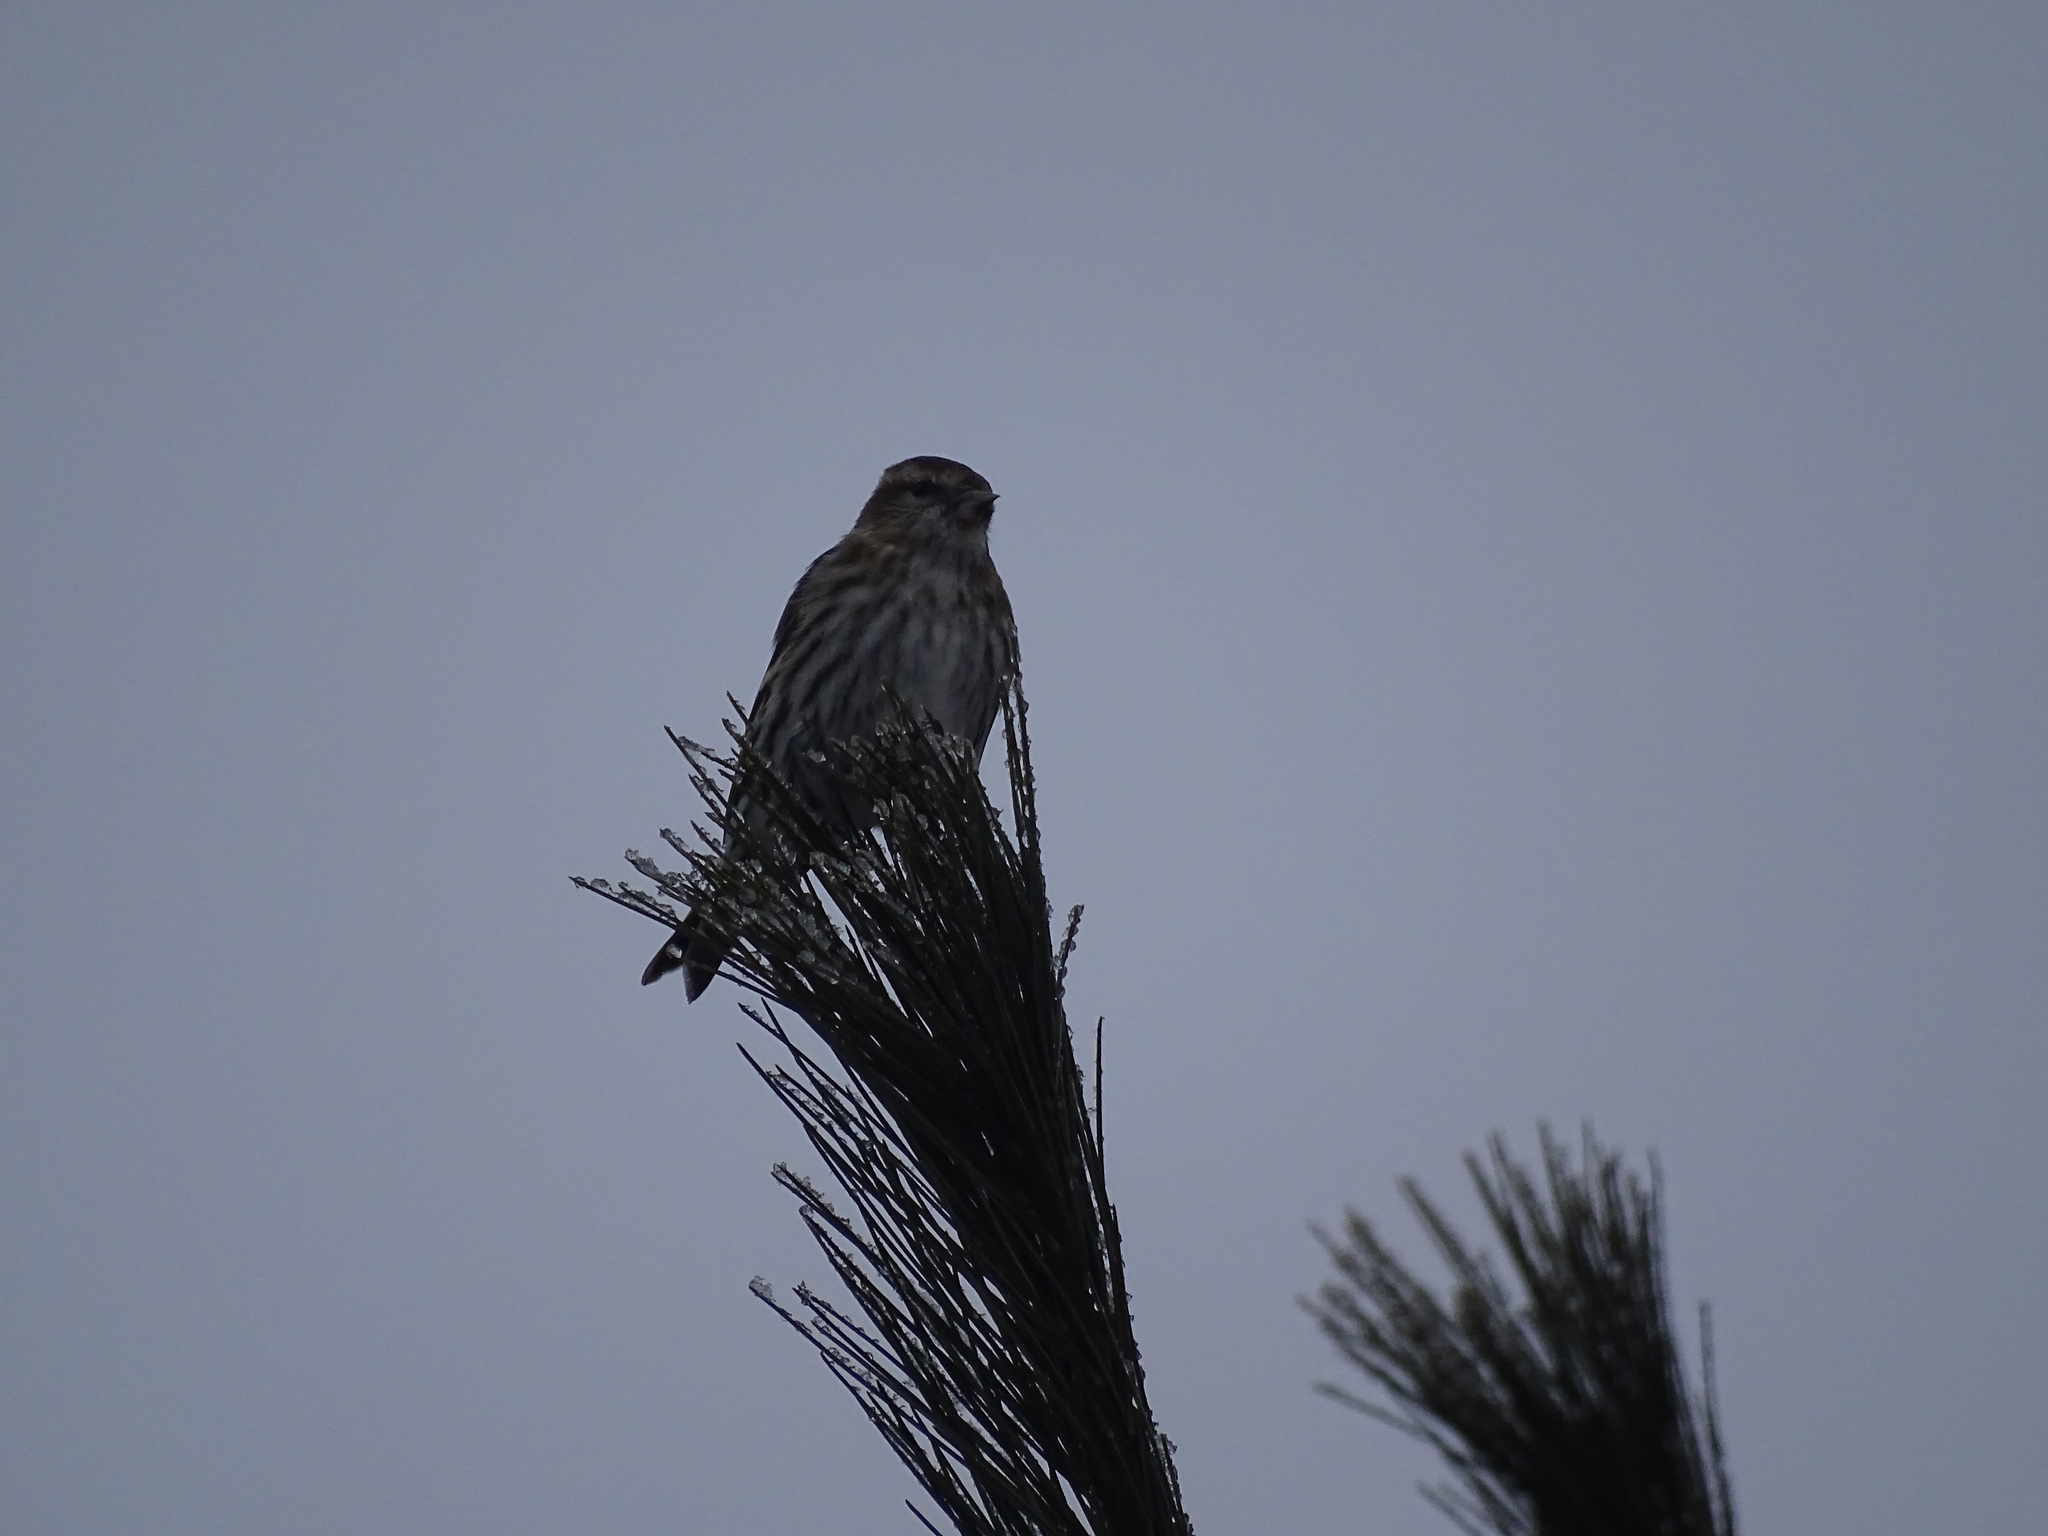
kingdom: Animalia
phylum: Chordata
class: Aves
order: Passeriformes
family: Fringillidae
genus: Spinus
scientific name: Spinus pinus
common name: Pine siskin
